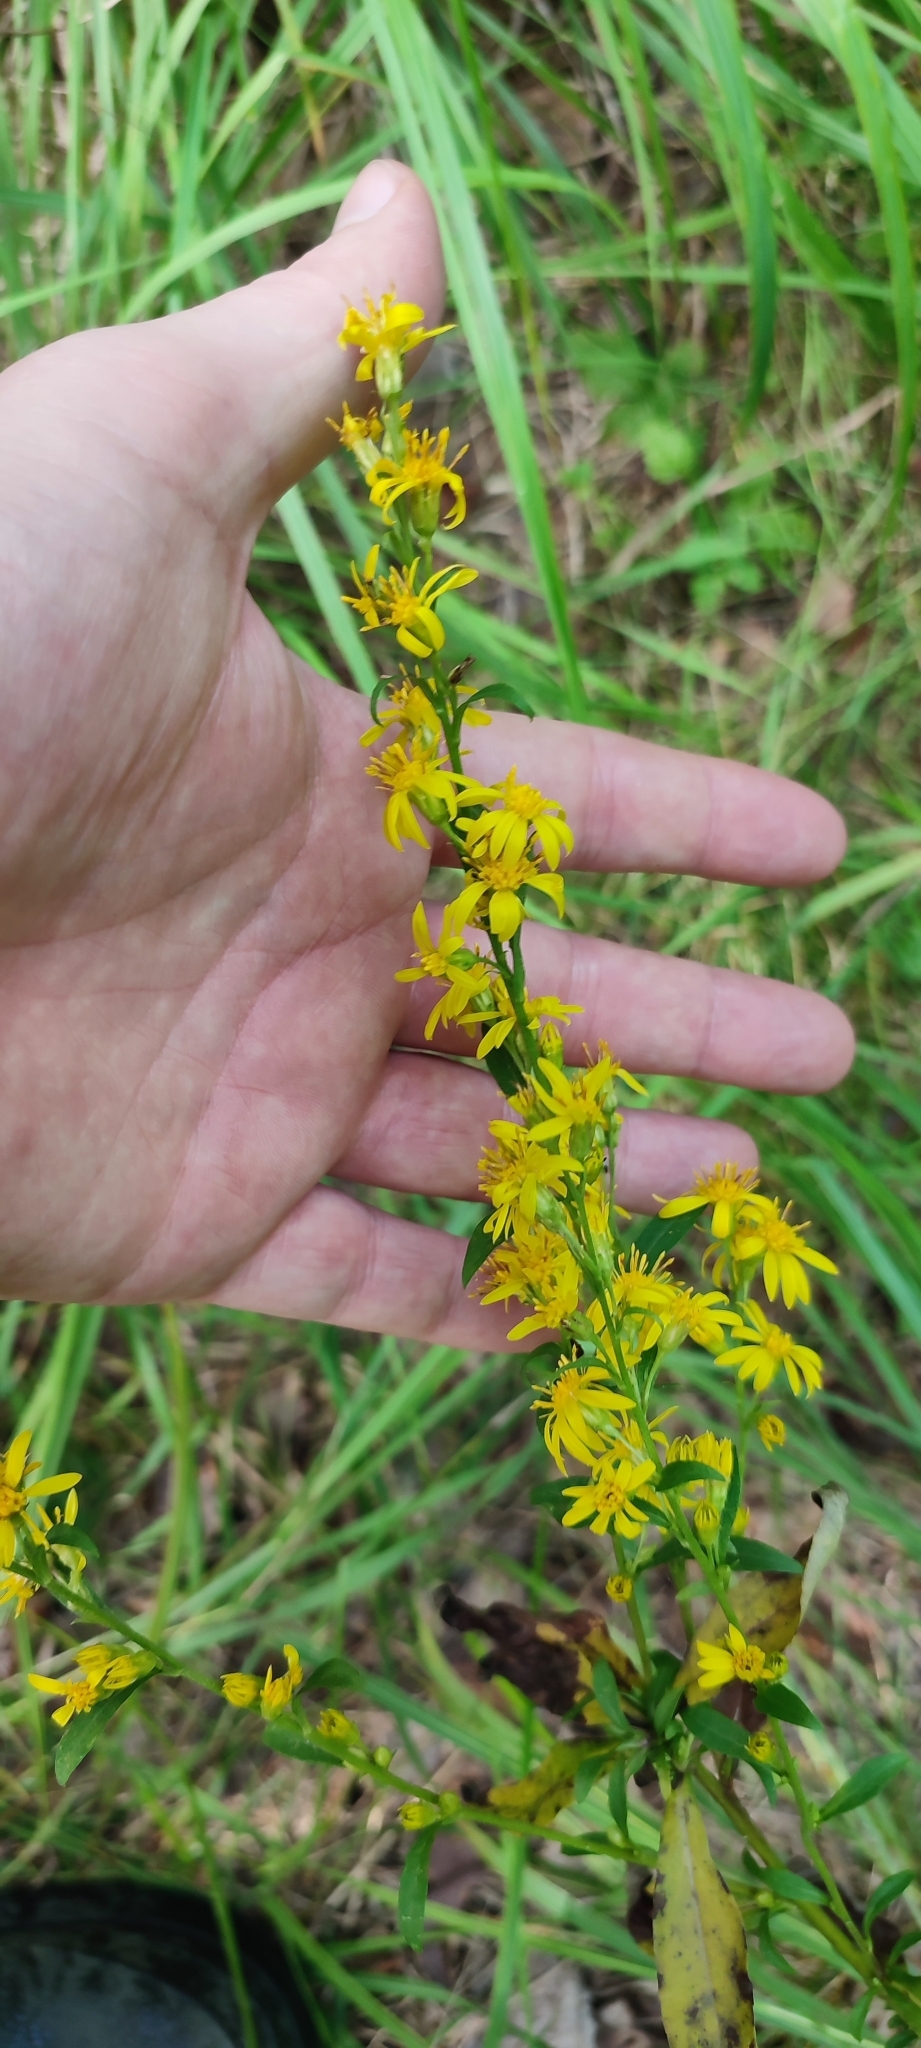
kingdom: Plantae
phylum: Tracheophyta
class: Magnoliopsida
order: Asterales
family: Asteraceae
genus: Solidago
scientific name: Solidago virgaurea
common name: Goldenrod
